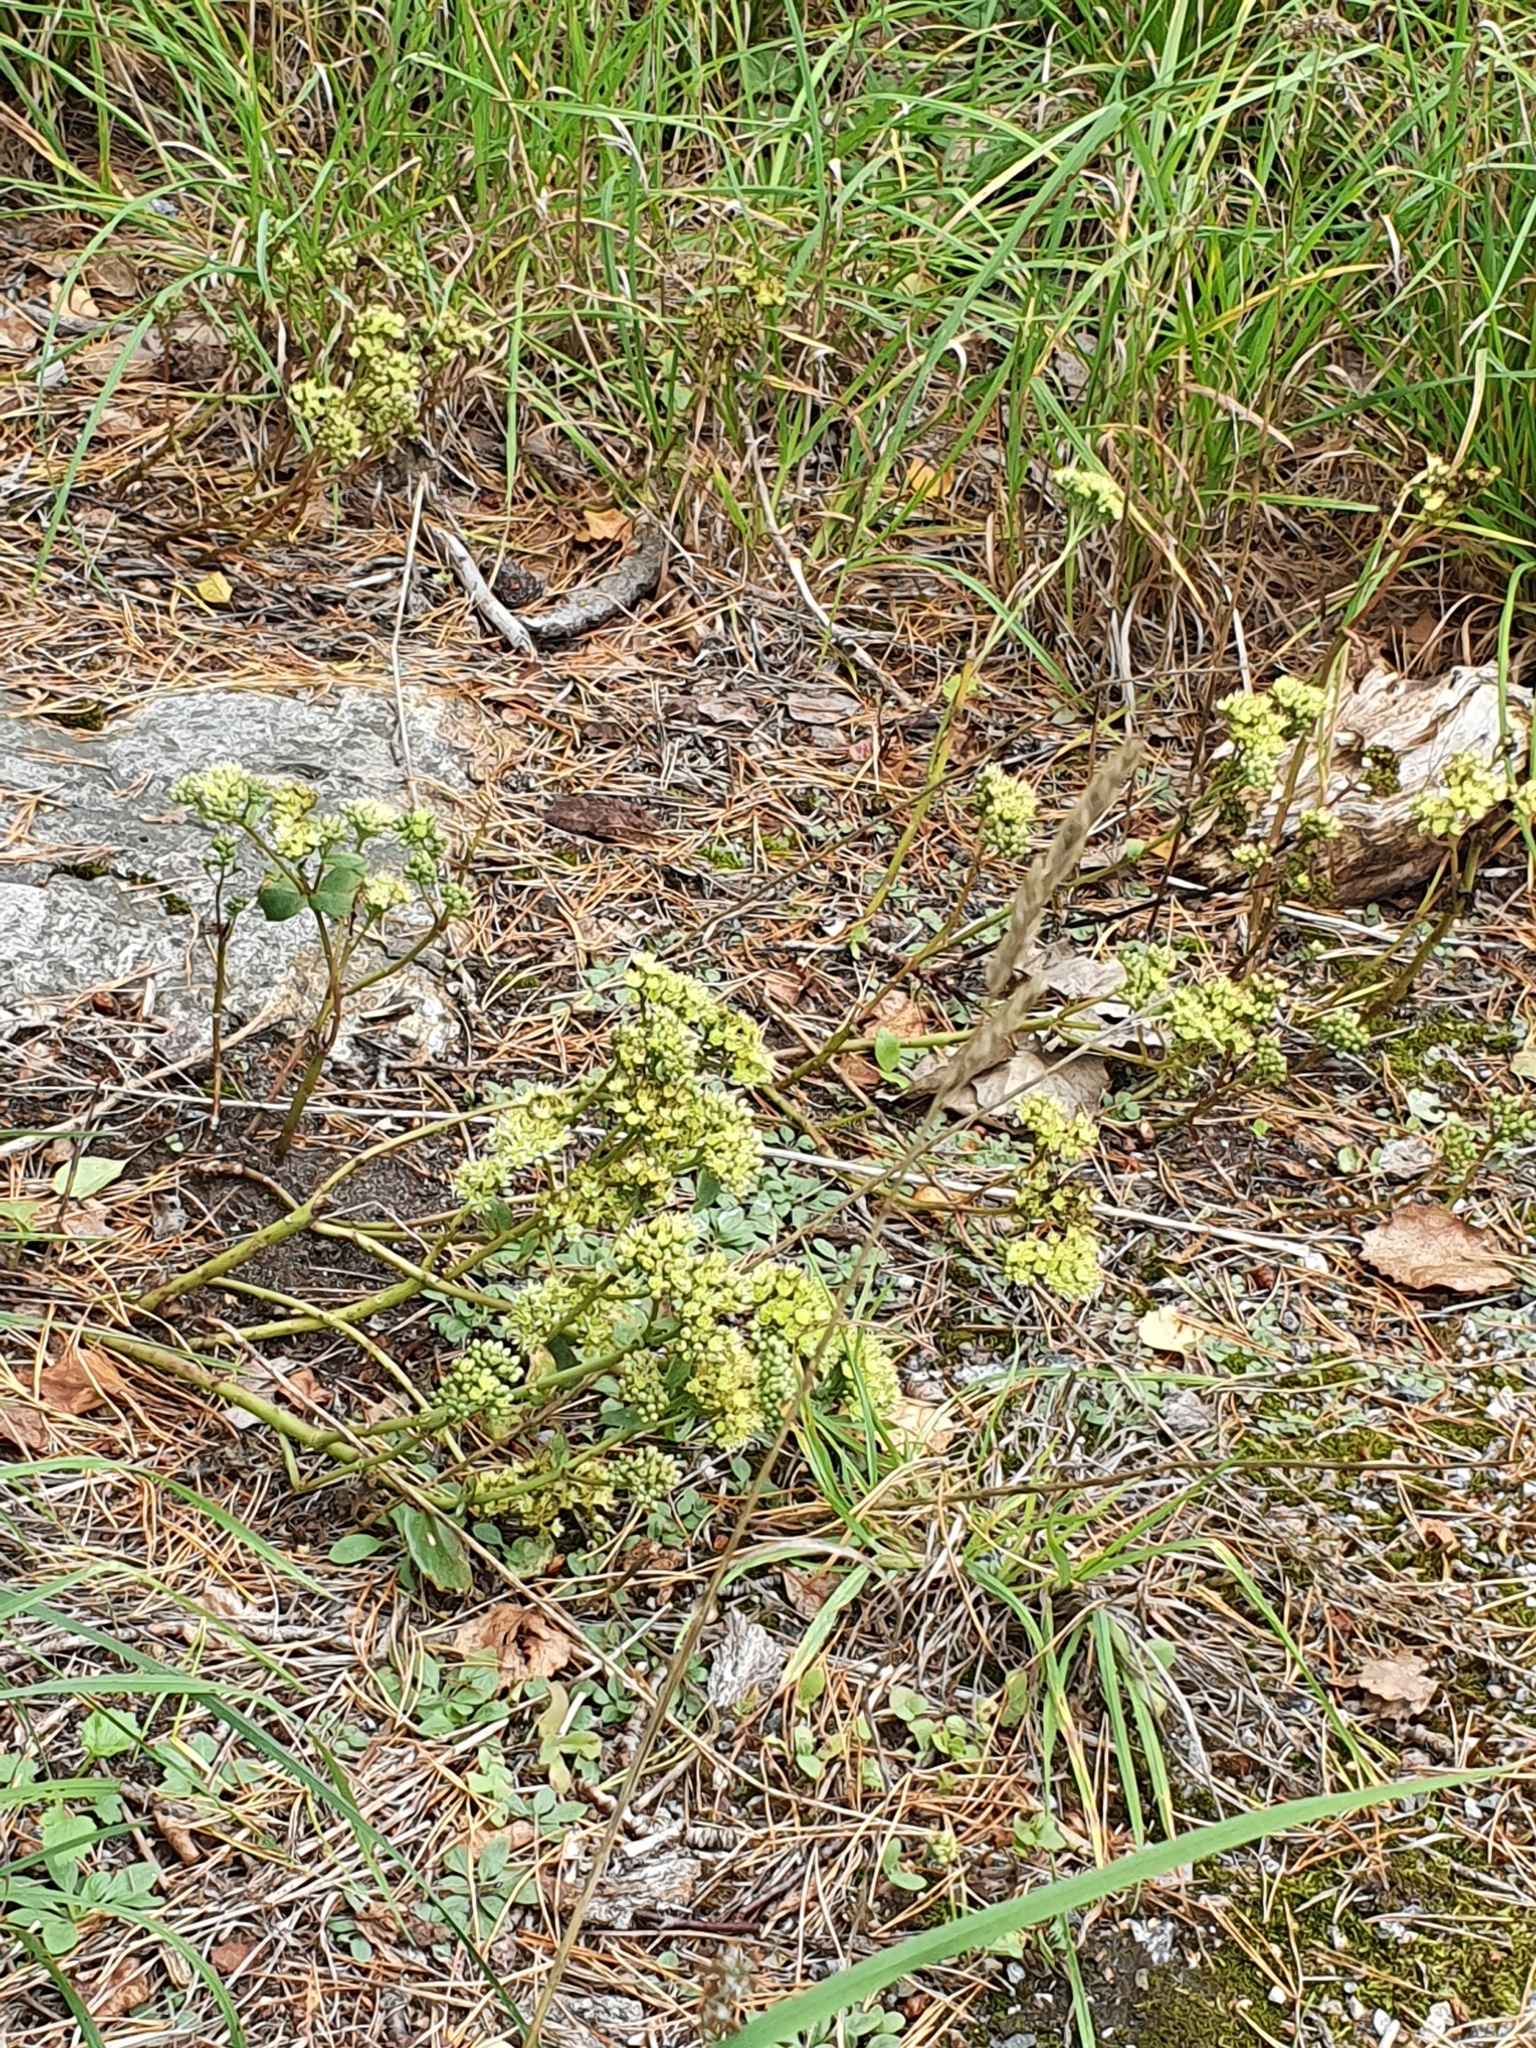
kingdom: Plantae
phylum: Tracheophyta
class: Magnoliopsida
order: Saxifragales
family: Crassulaceae
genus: Hylotelephium
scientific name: Hylotelephium maximum
